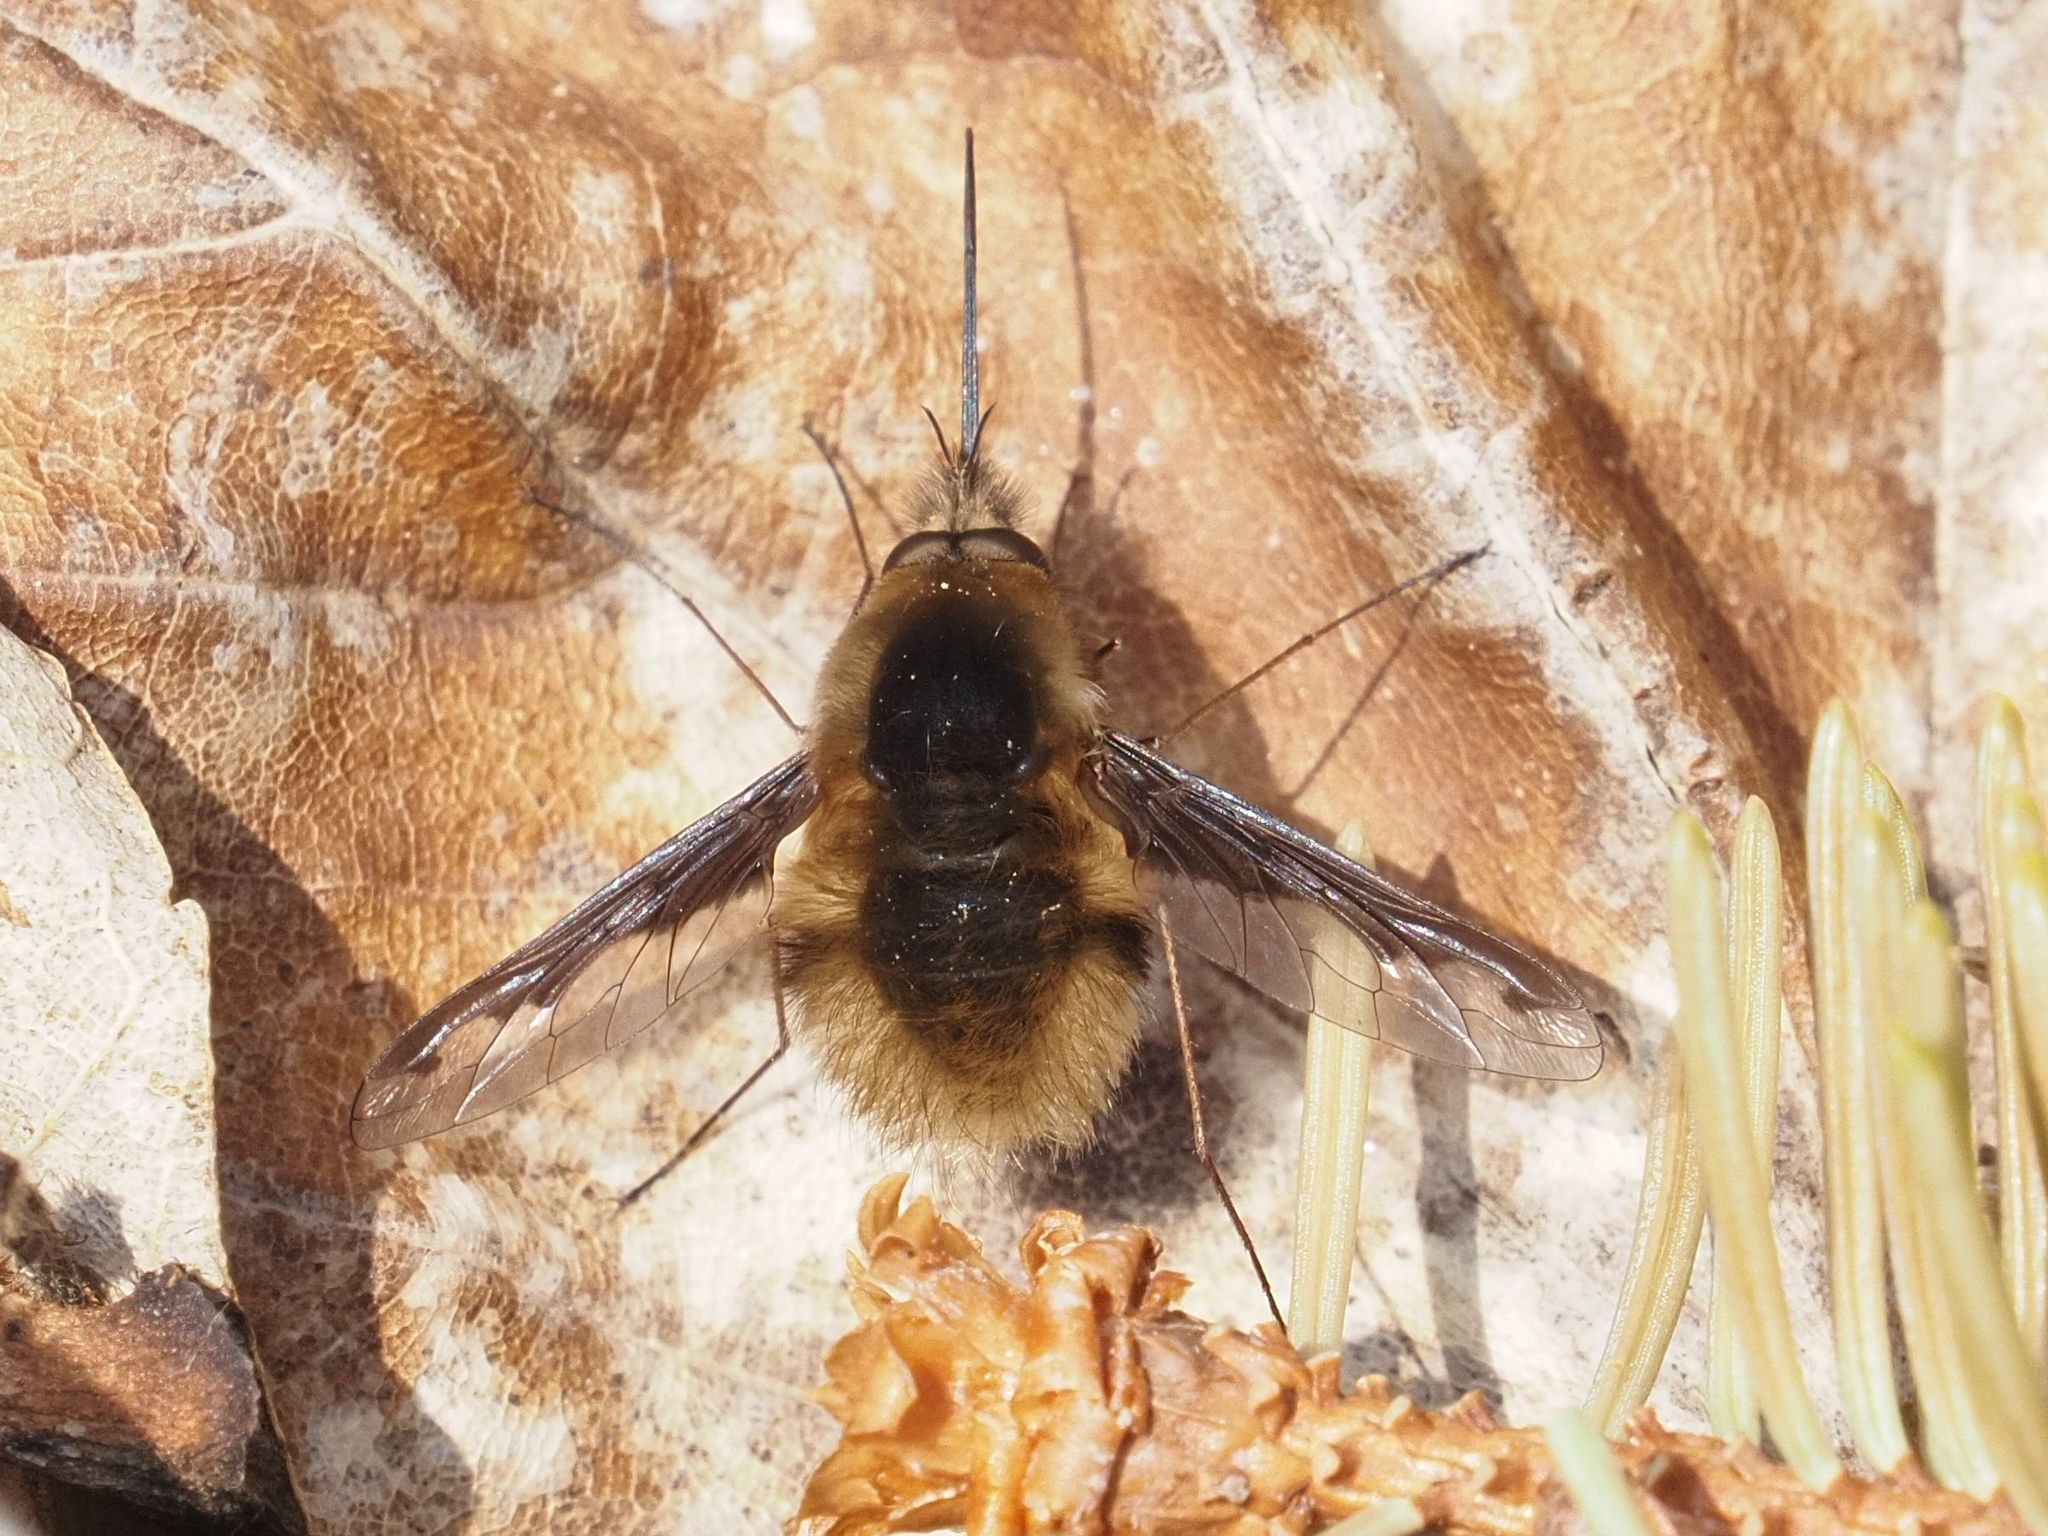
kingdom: Animalia
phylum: Arthropoda
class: Insecta
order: Diptera
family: Bombyliidae
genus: Bombylius
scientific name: Bombylius major
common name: Bee fly
